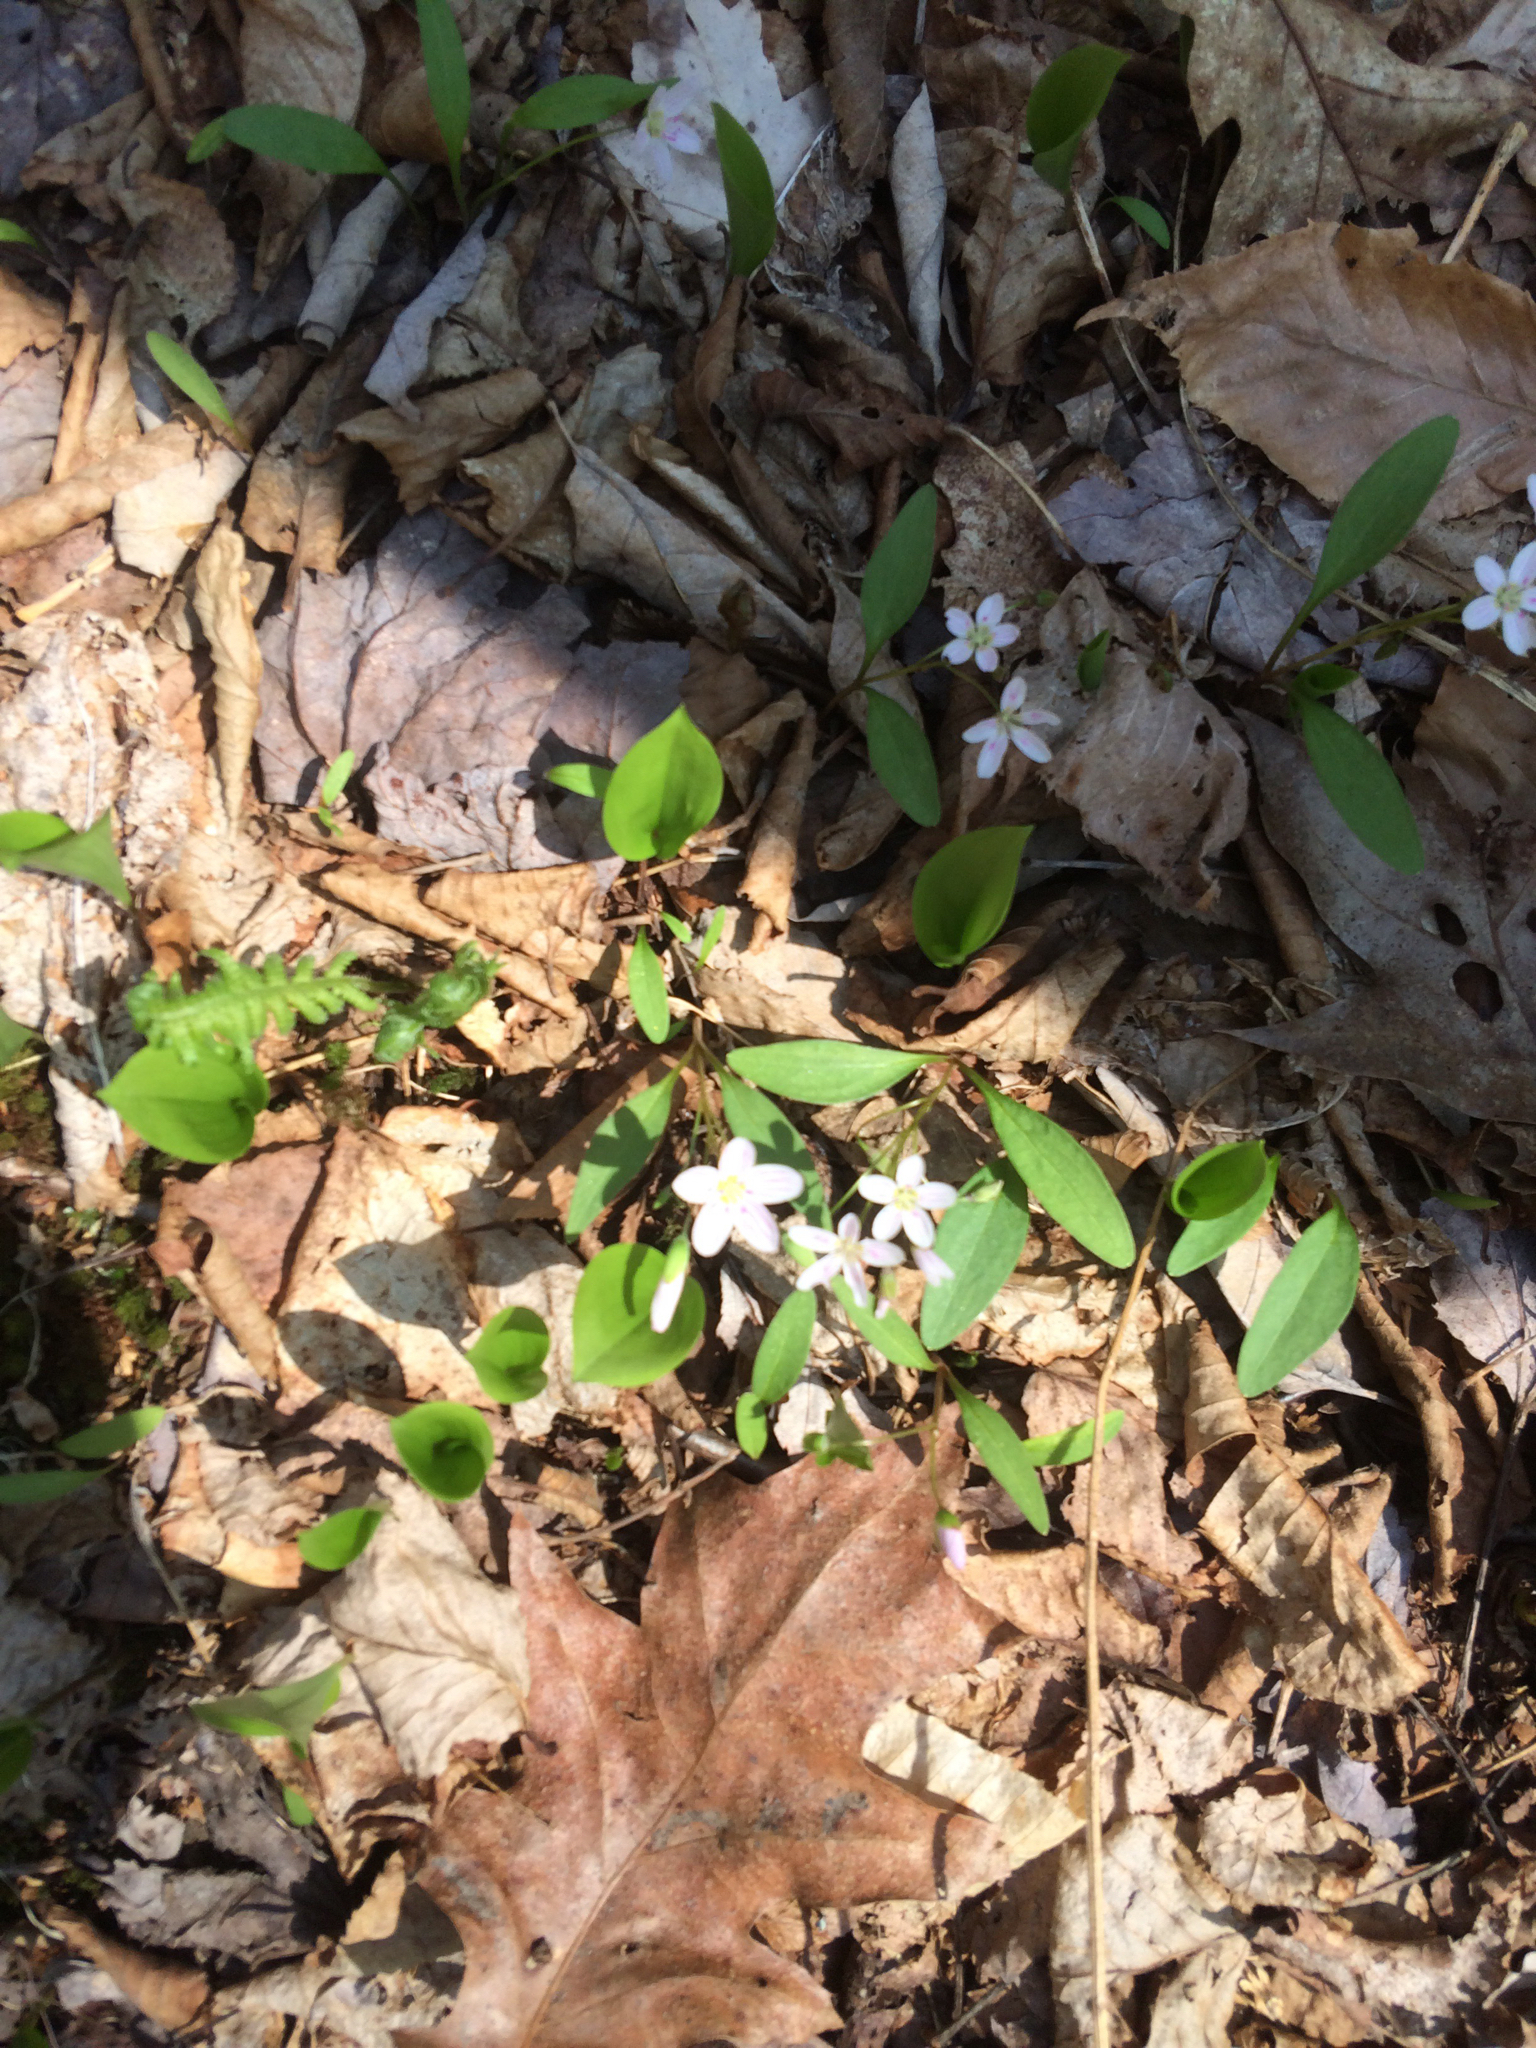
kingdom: Plantae
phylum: Tracheophyta
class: Magnoliopsida
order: Caryophyllales
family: Montiaceae
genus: Claytonia
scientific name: Claytonia caroliniana
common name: Carolina spring beauty
